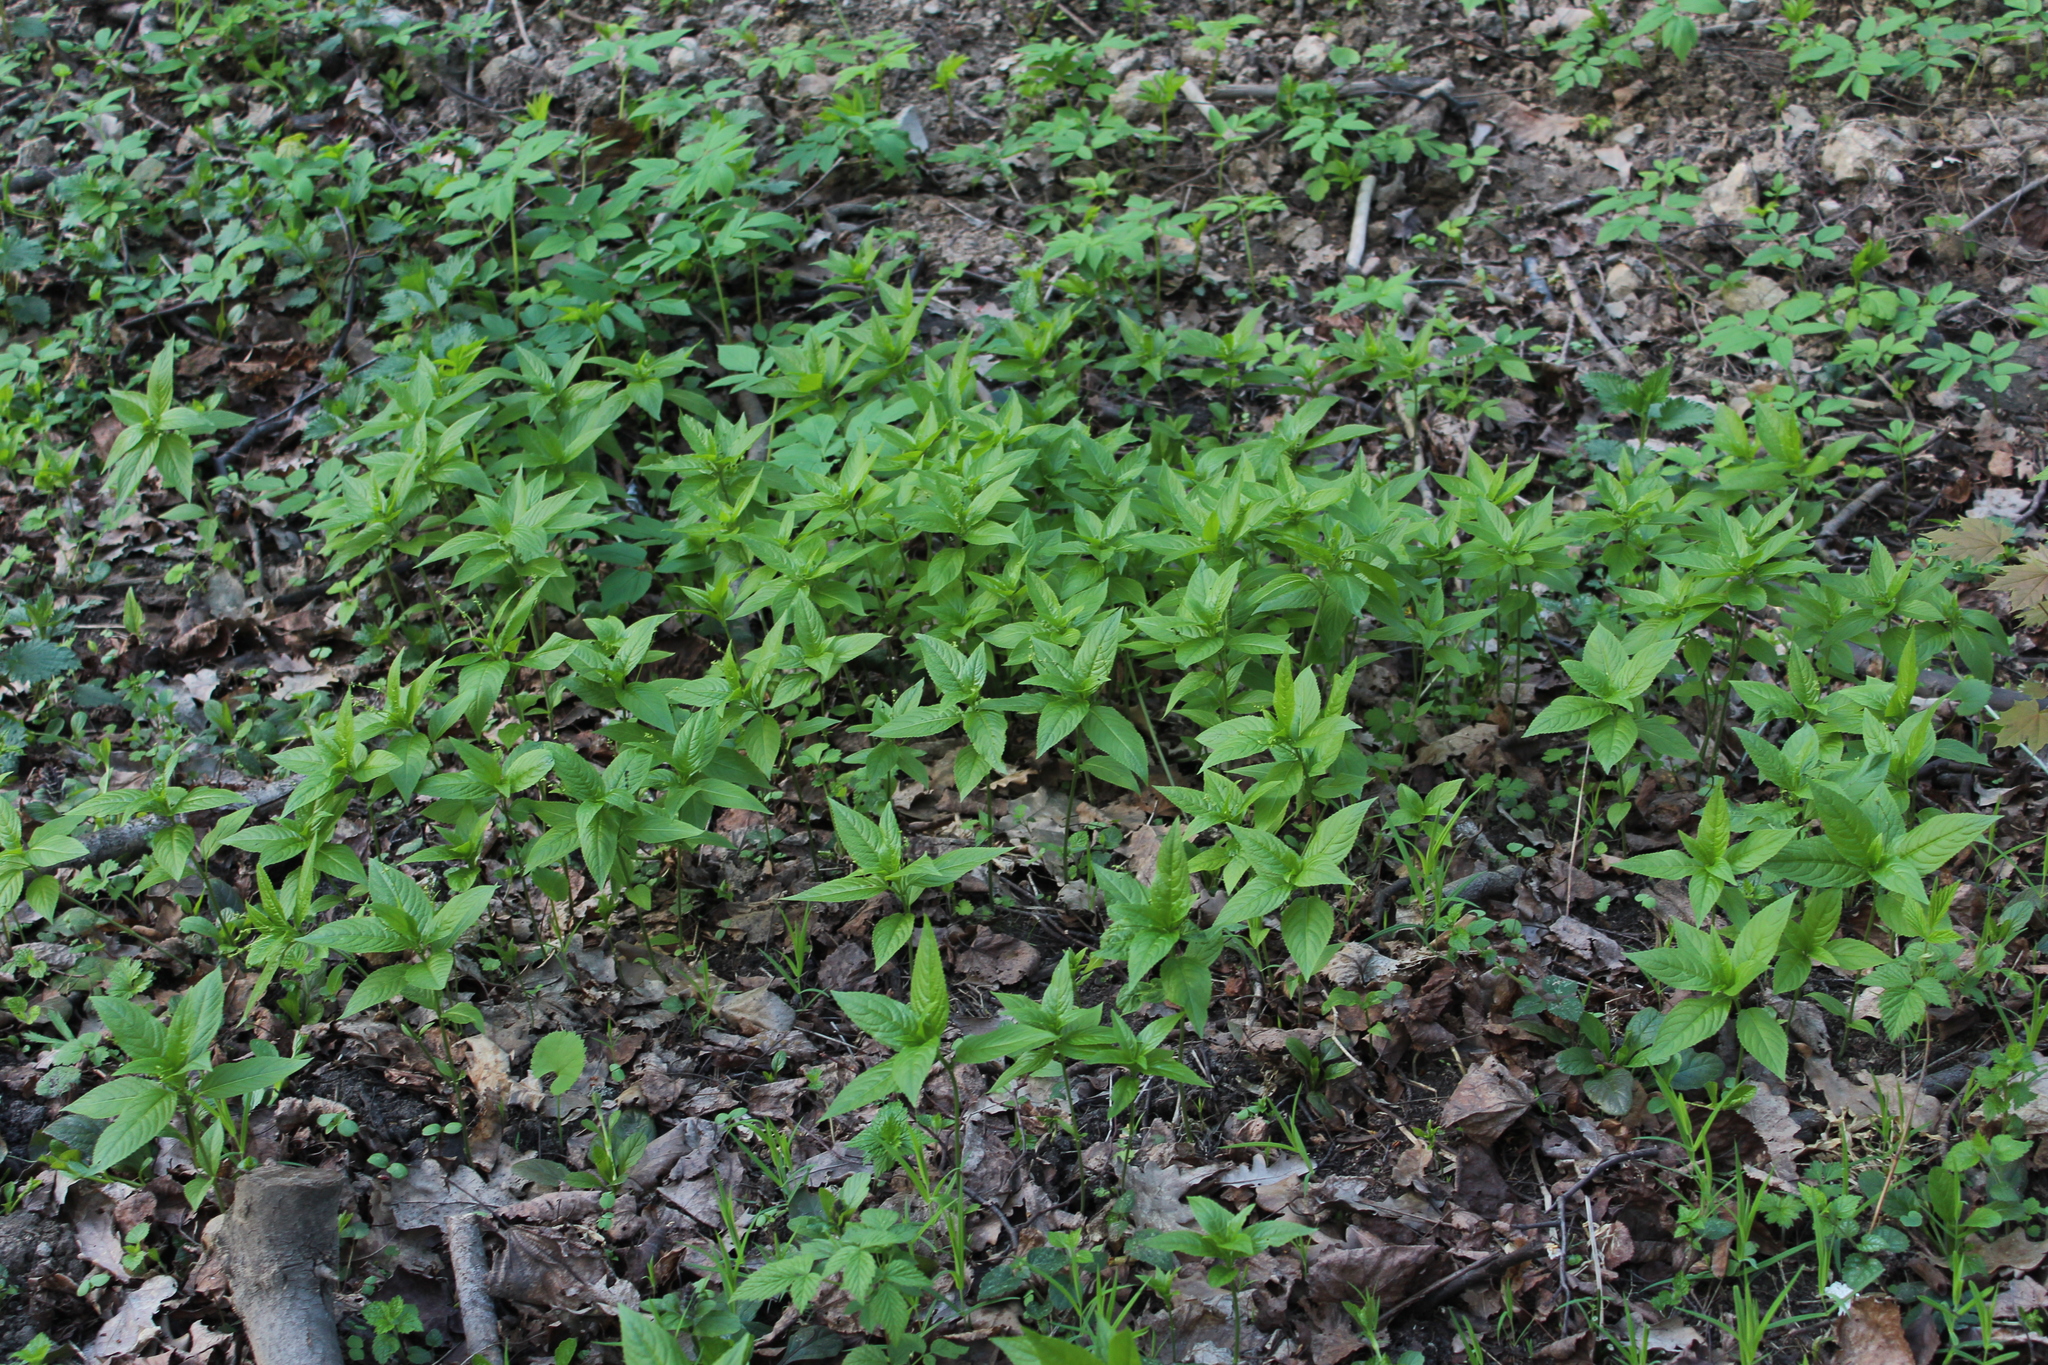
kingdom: Plantae
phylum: Tracheophyta
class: Magnoliopsida
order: Malpighiales
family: Euphorbiaceae
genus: Mercurialis
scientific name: Mercurialis perennis
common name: Dog mercury
